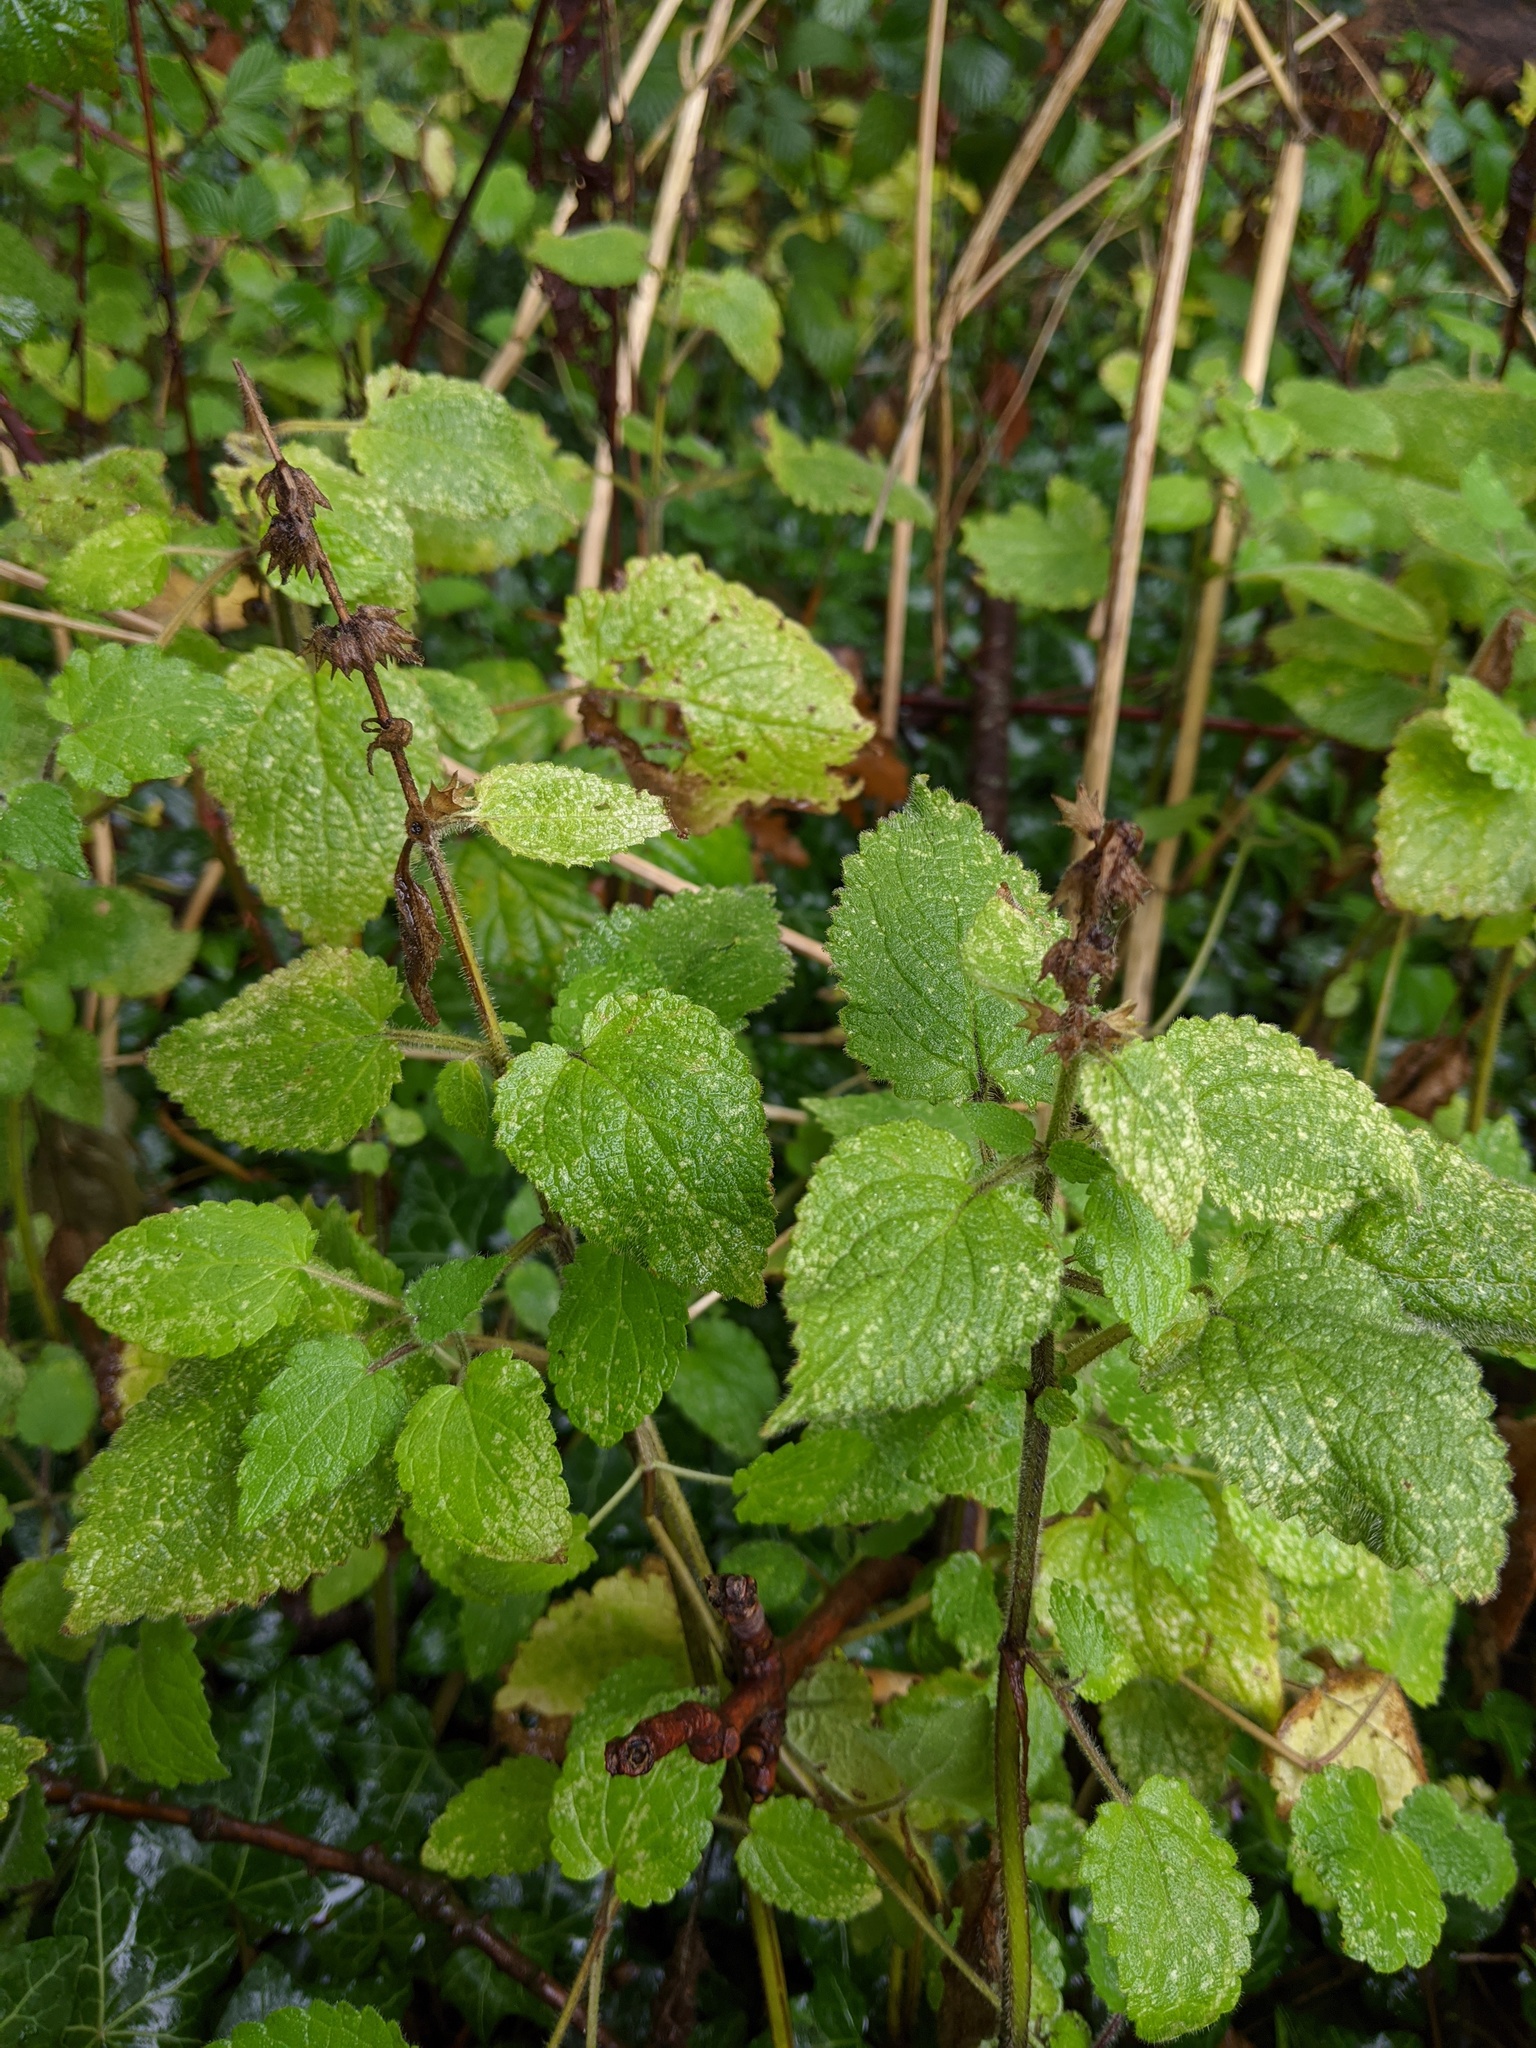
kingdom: Plantae
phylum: Tracheophyta
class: Magnoliopsida
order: Lamiales
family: Lamiaceae
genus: Stachys
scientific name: Stachys sylvatica
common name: Hedge woundwort
